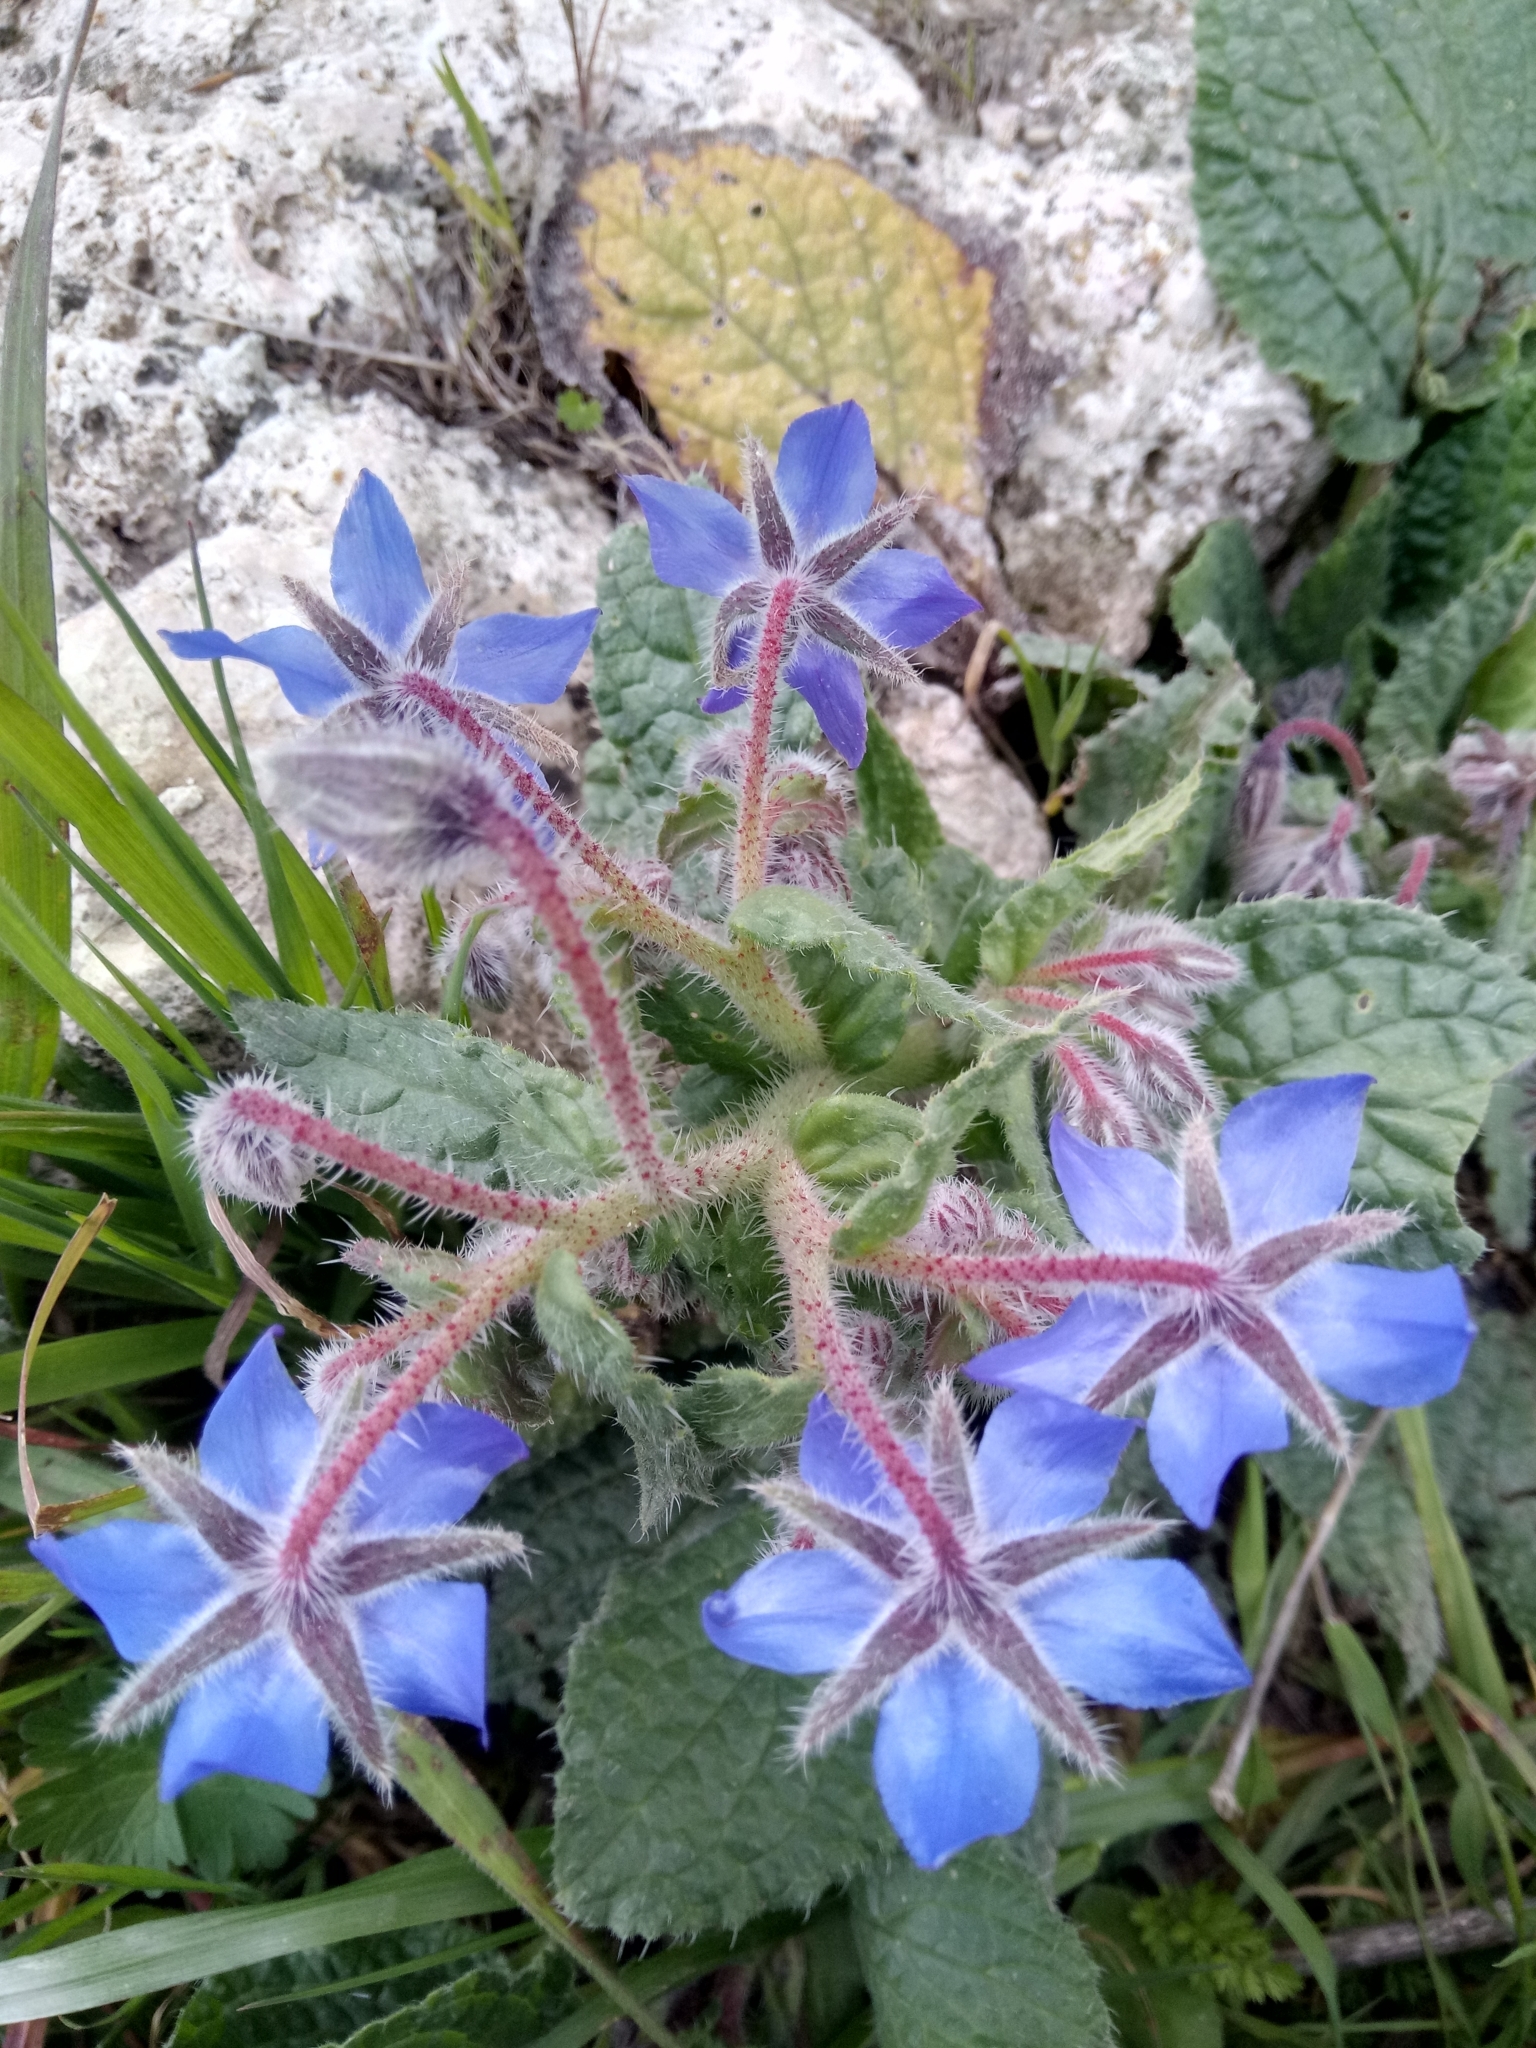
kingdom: Plantae
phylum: Tracheophyta
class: Magnoliopsida
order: Boraginales
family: Boraginaceae
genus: Borago
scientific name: Borago officinalis
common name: Borage
